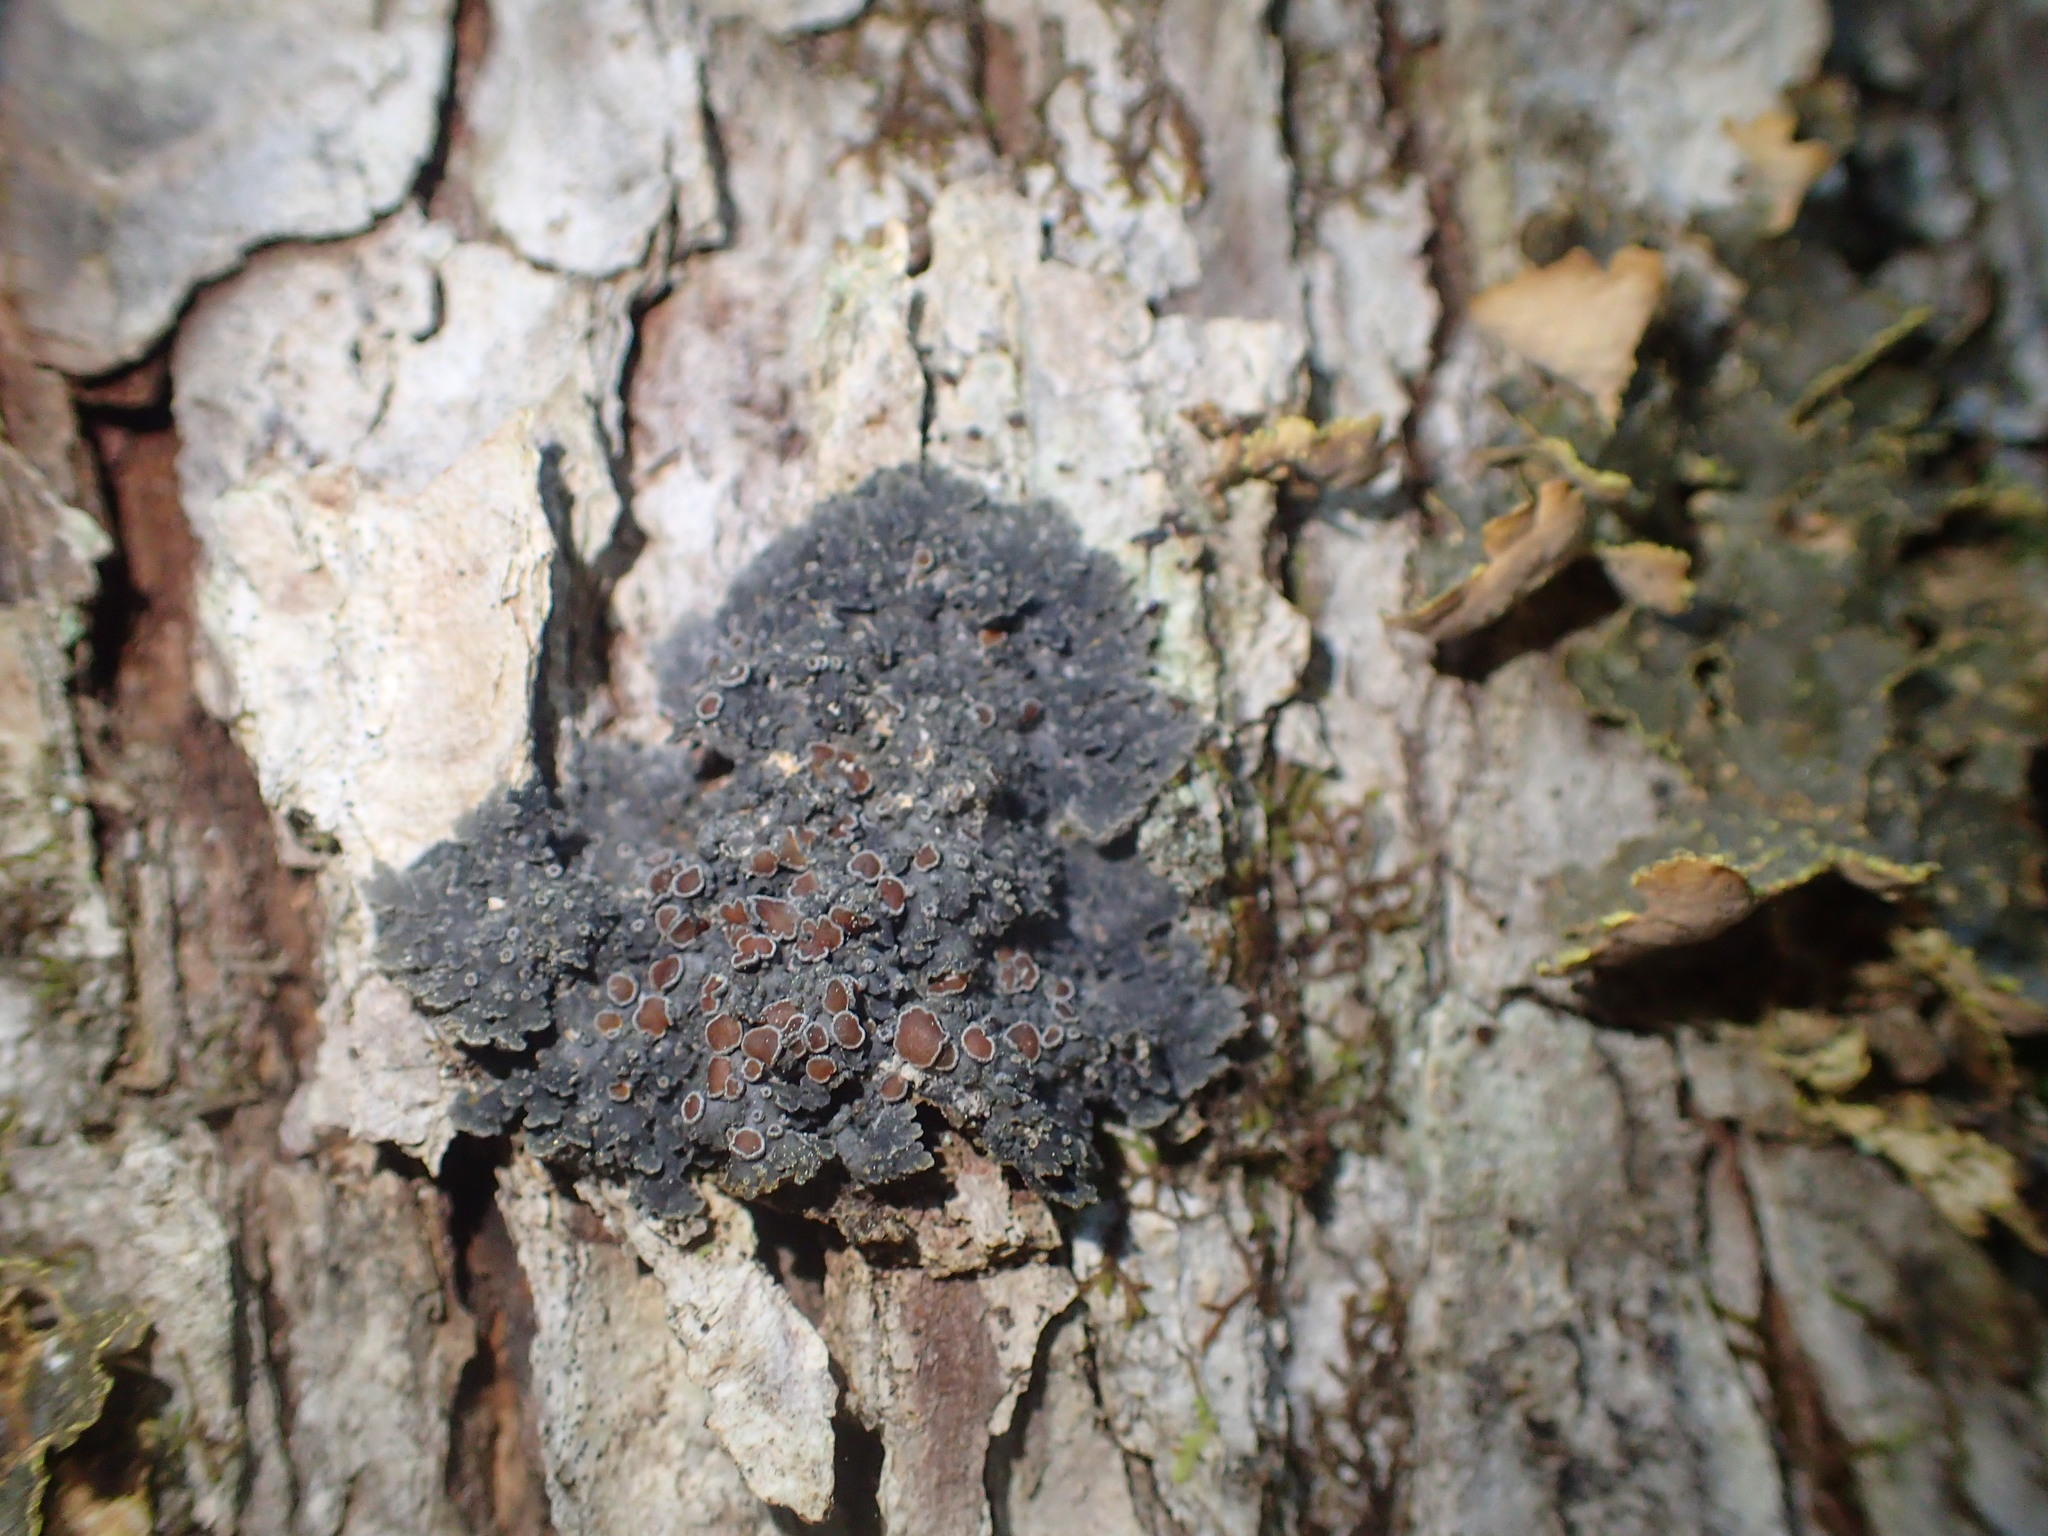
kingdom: Fungi
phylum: Ascomycota
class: Lecanoromycetes
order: Peltigerales
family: Pannariaceae
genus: Pannaria
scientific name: Pannaria rubiginosa
